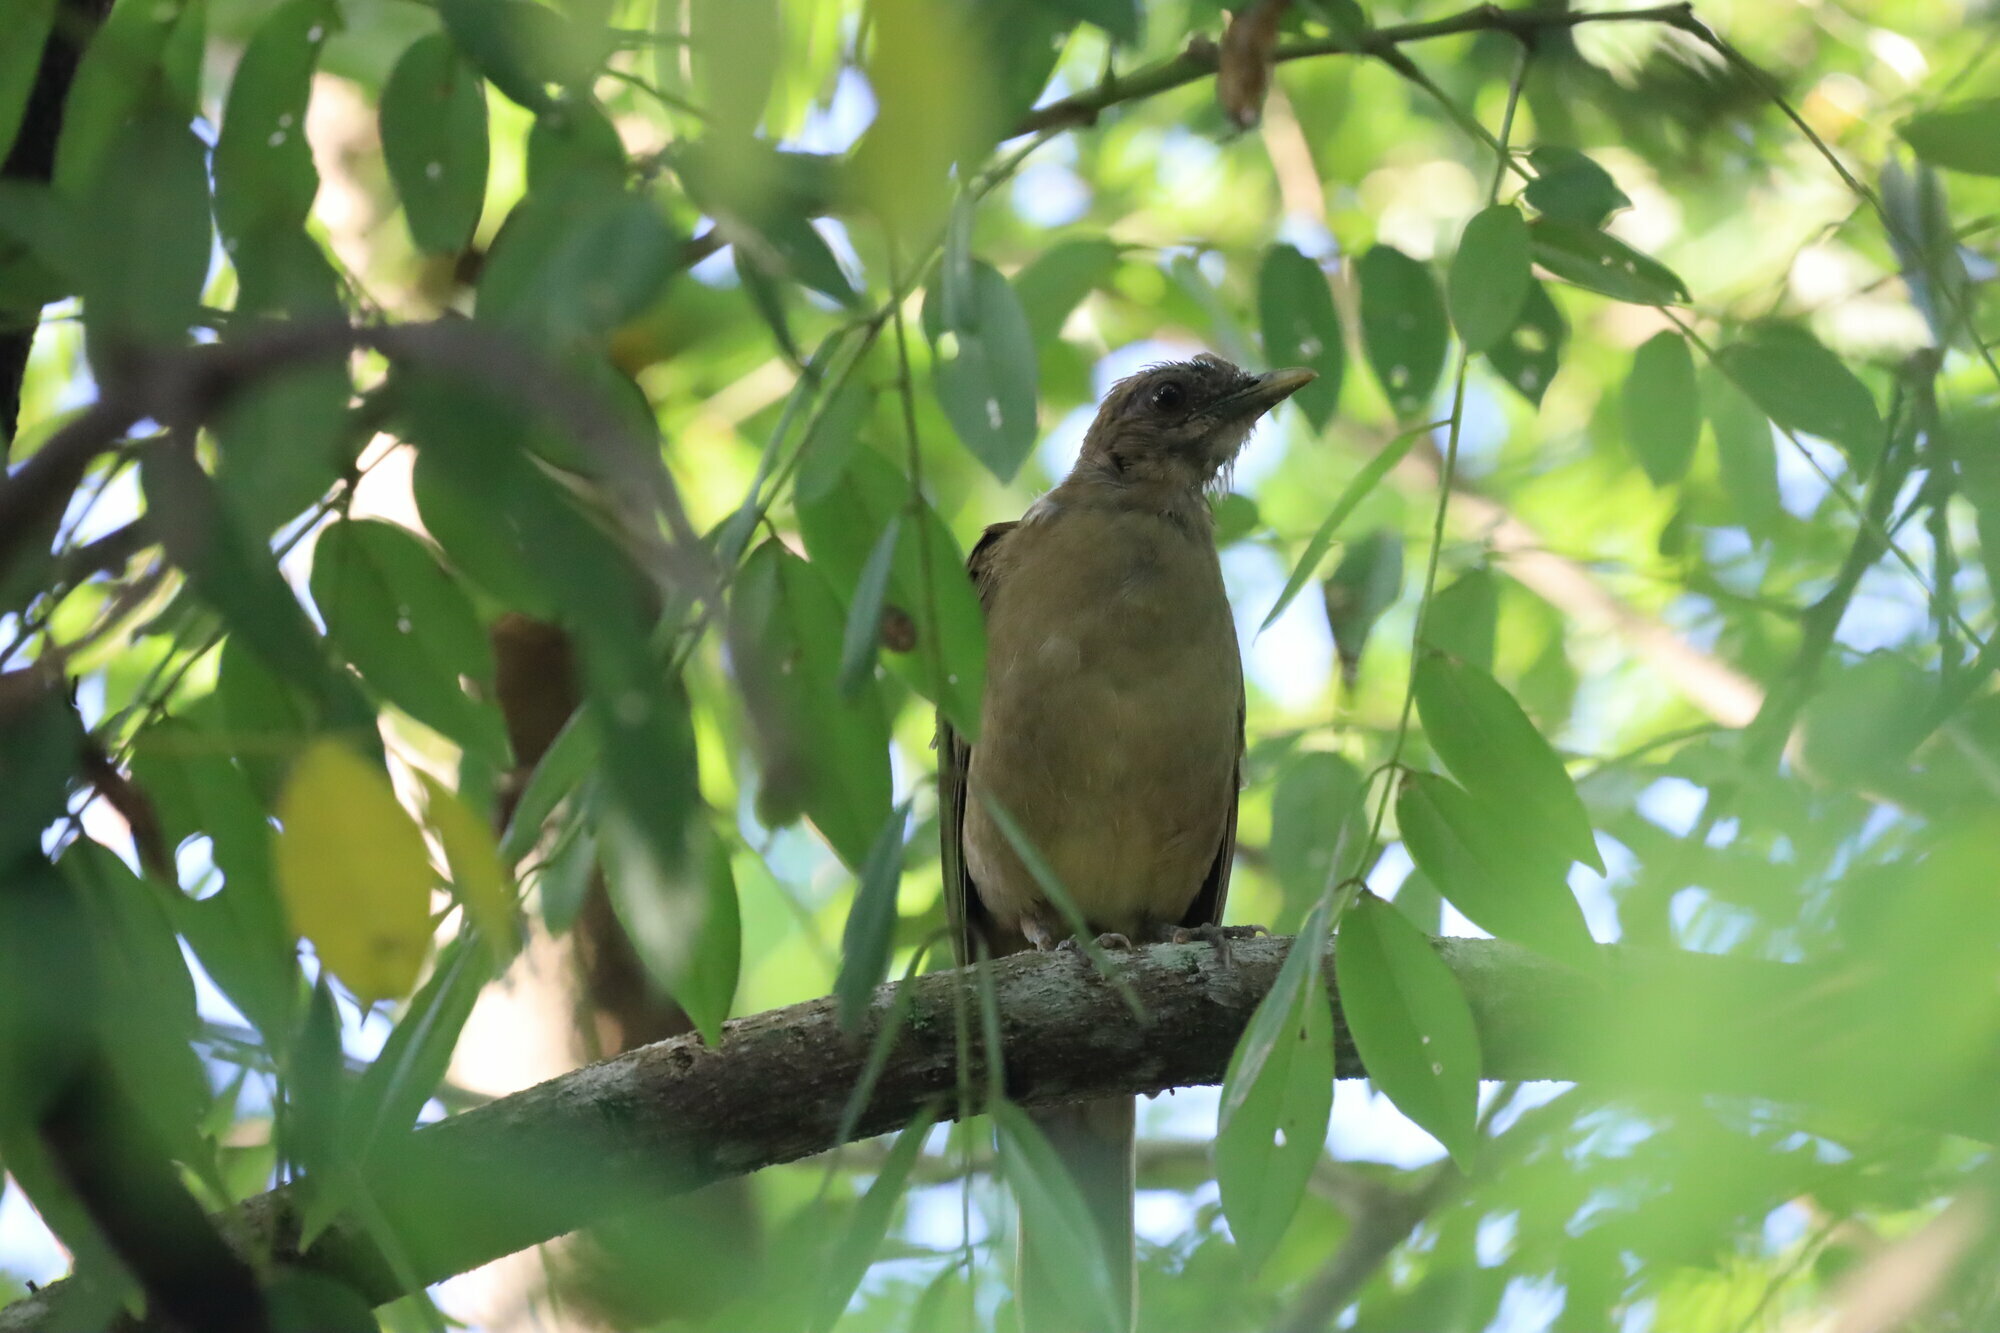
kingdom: Animalia
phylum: Chordata
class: Aves
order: Passeriformes
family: Turdidae
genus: Turdus
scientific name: Turdus grayi
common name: Clay-colored thrush
